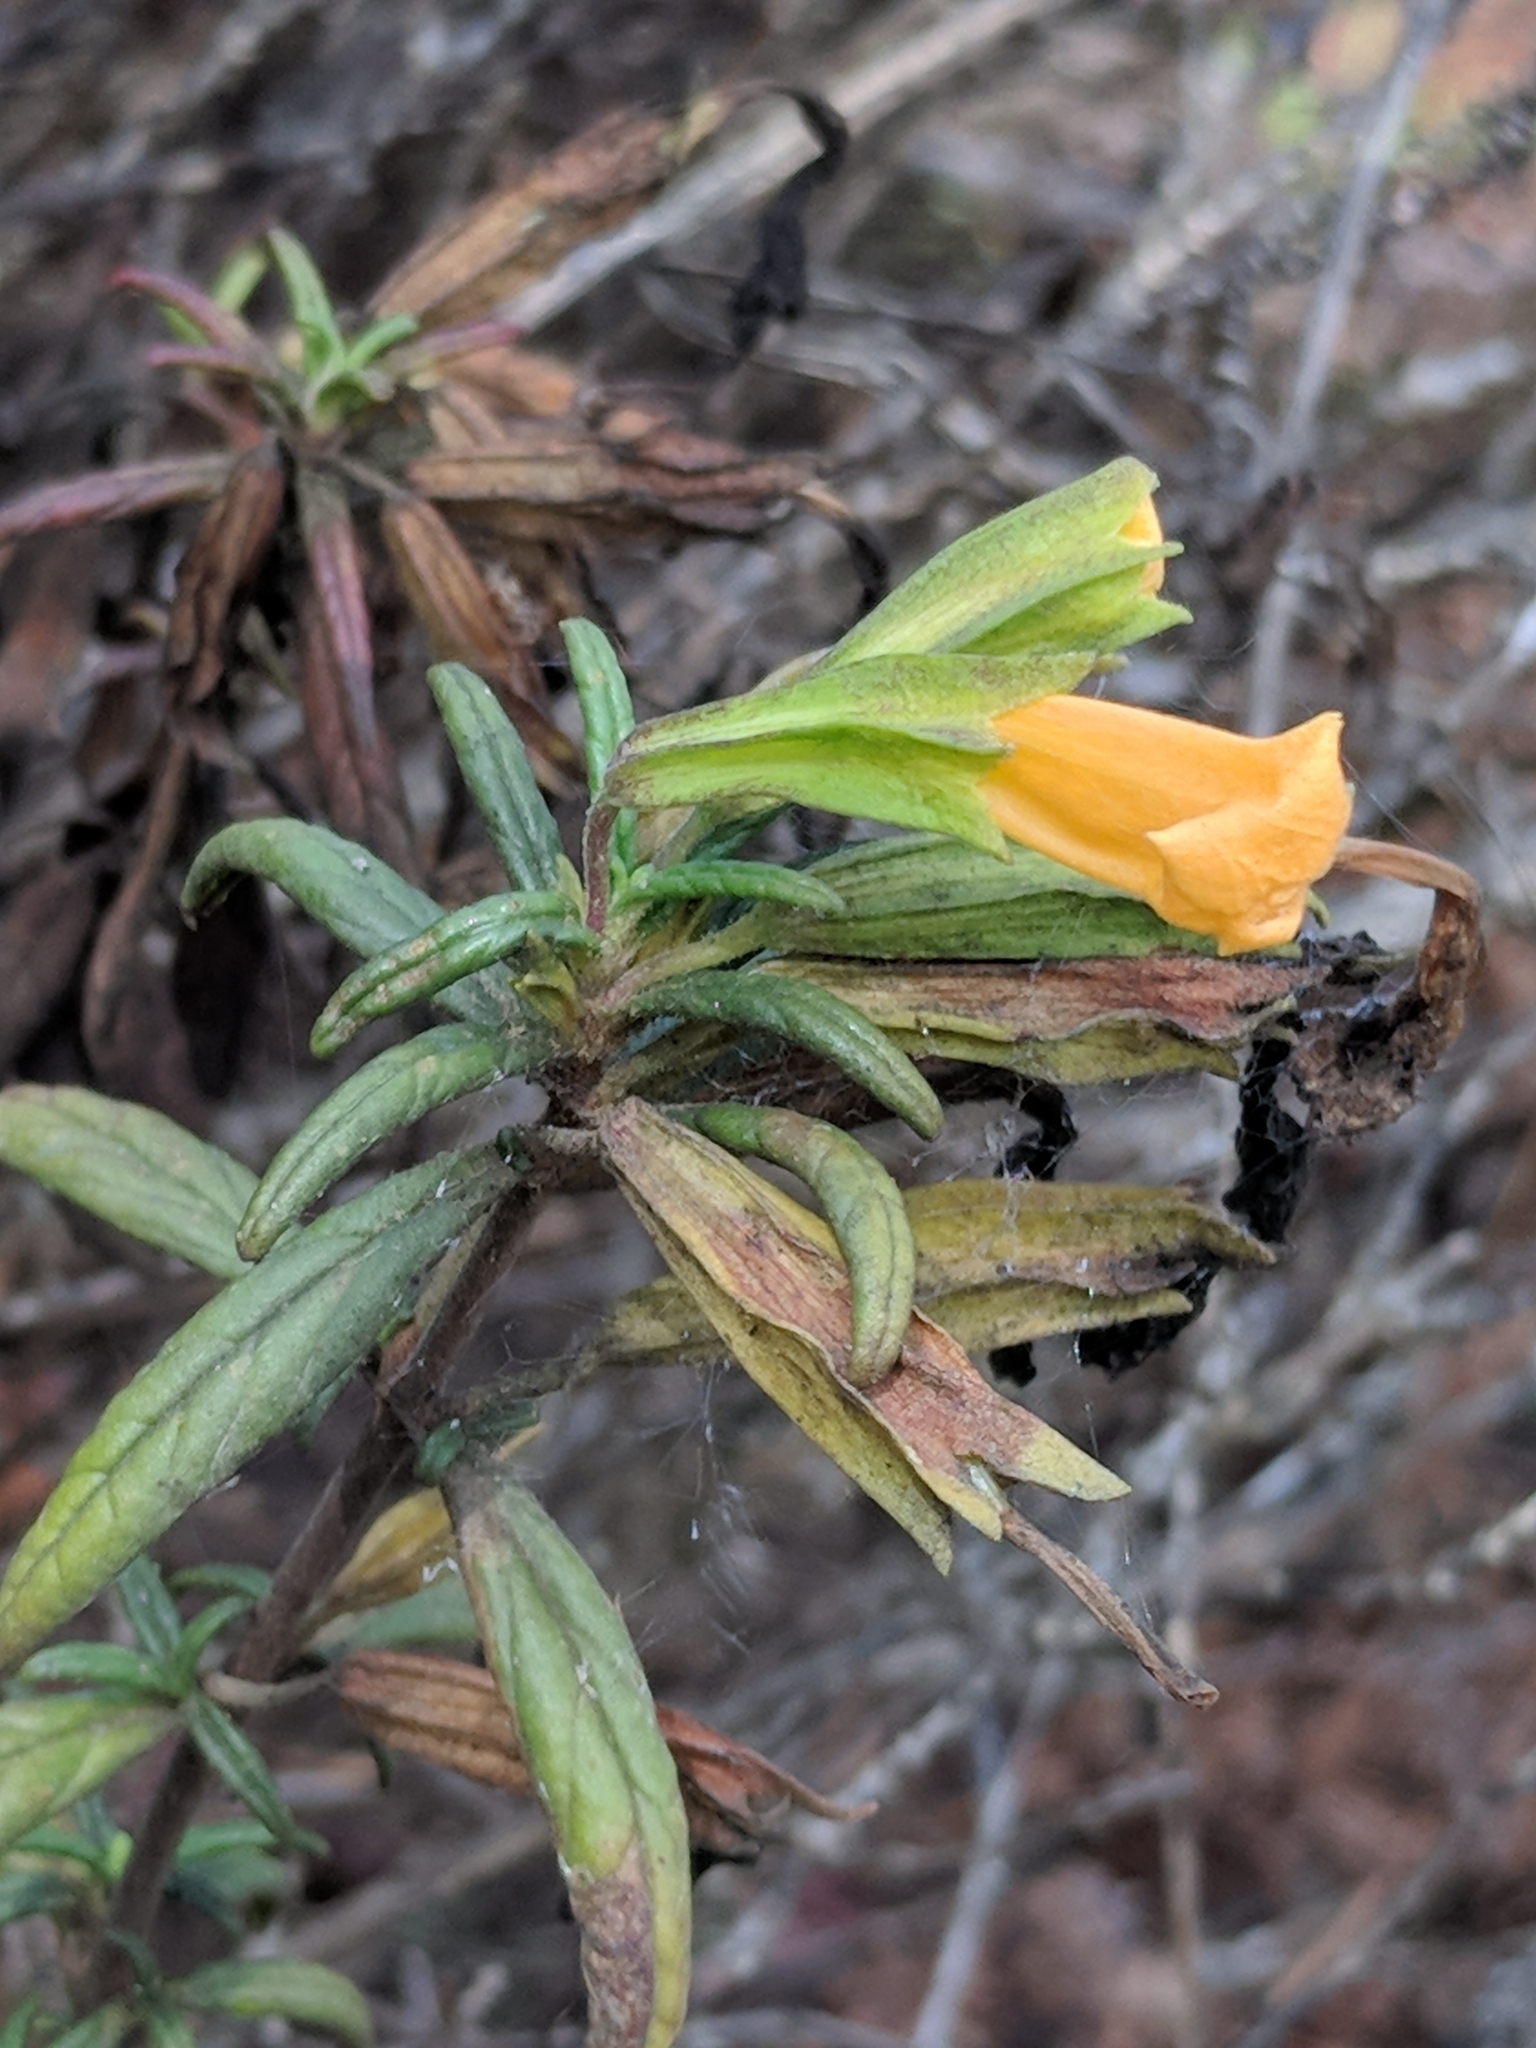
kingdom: Plantae
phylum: Tracheophyta
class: Magnoliopsida
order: Lamiales
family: Phrymaceae
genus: Diplacus
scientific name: Diplacus aurantiacus
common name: Bush monkey-flower
